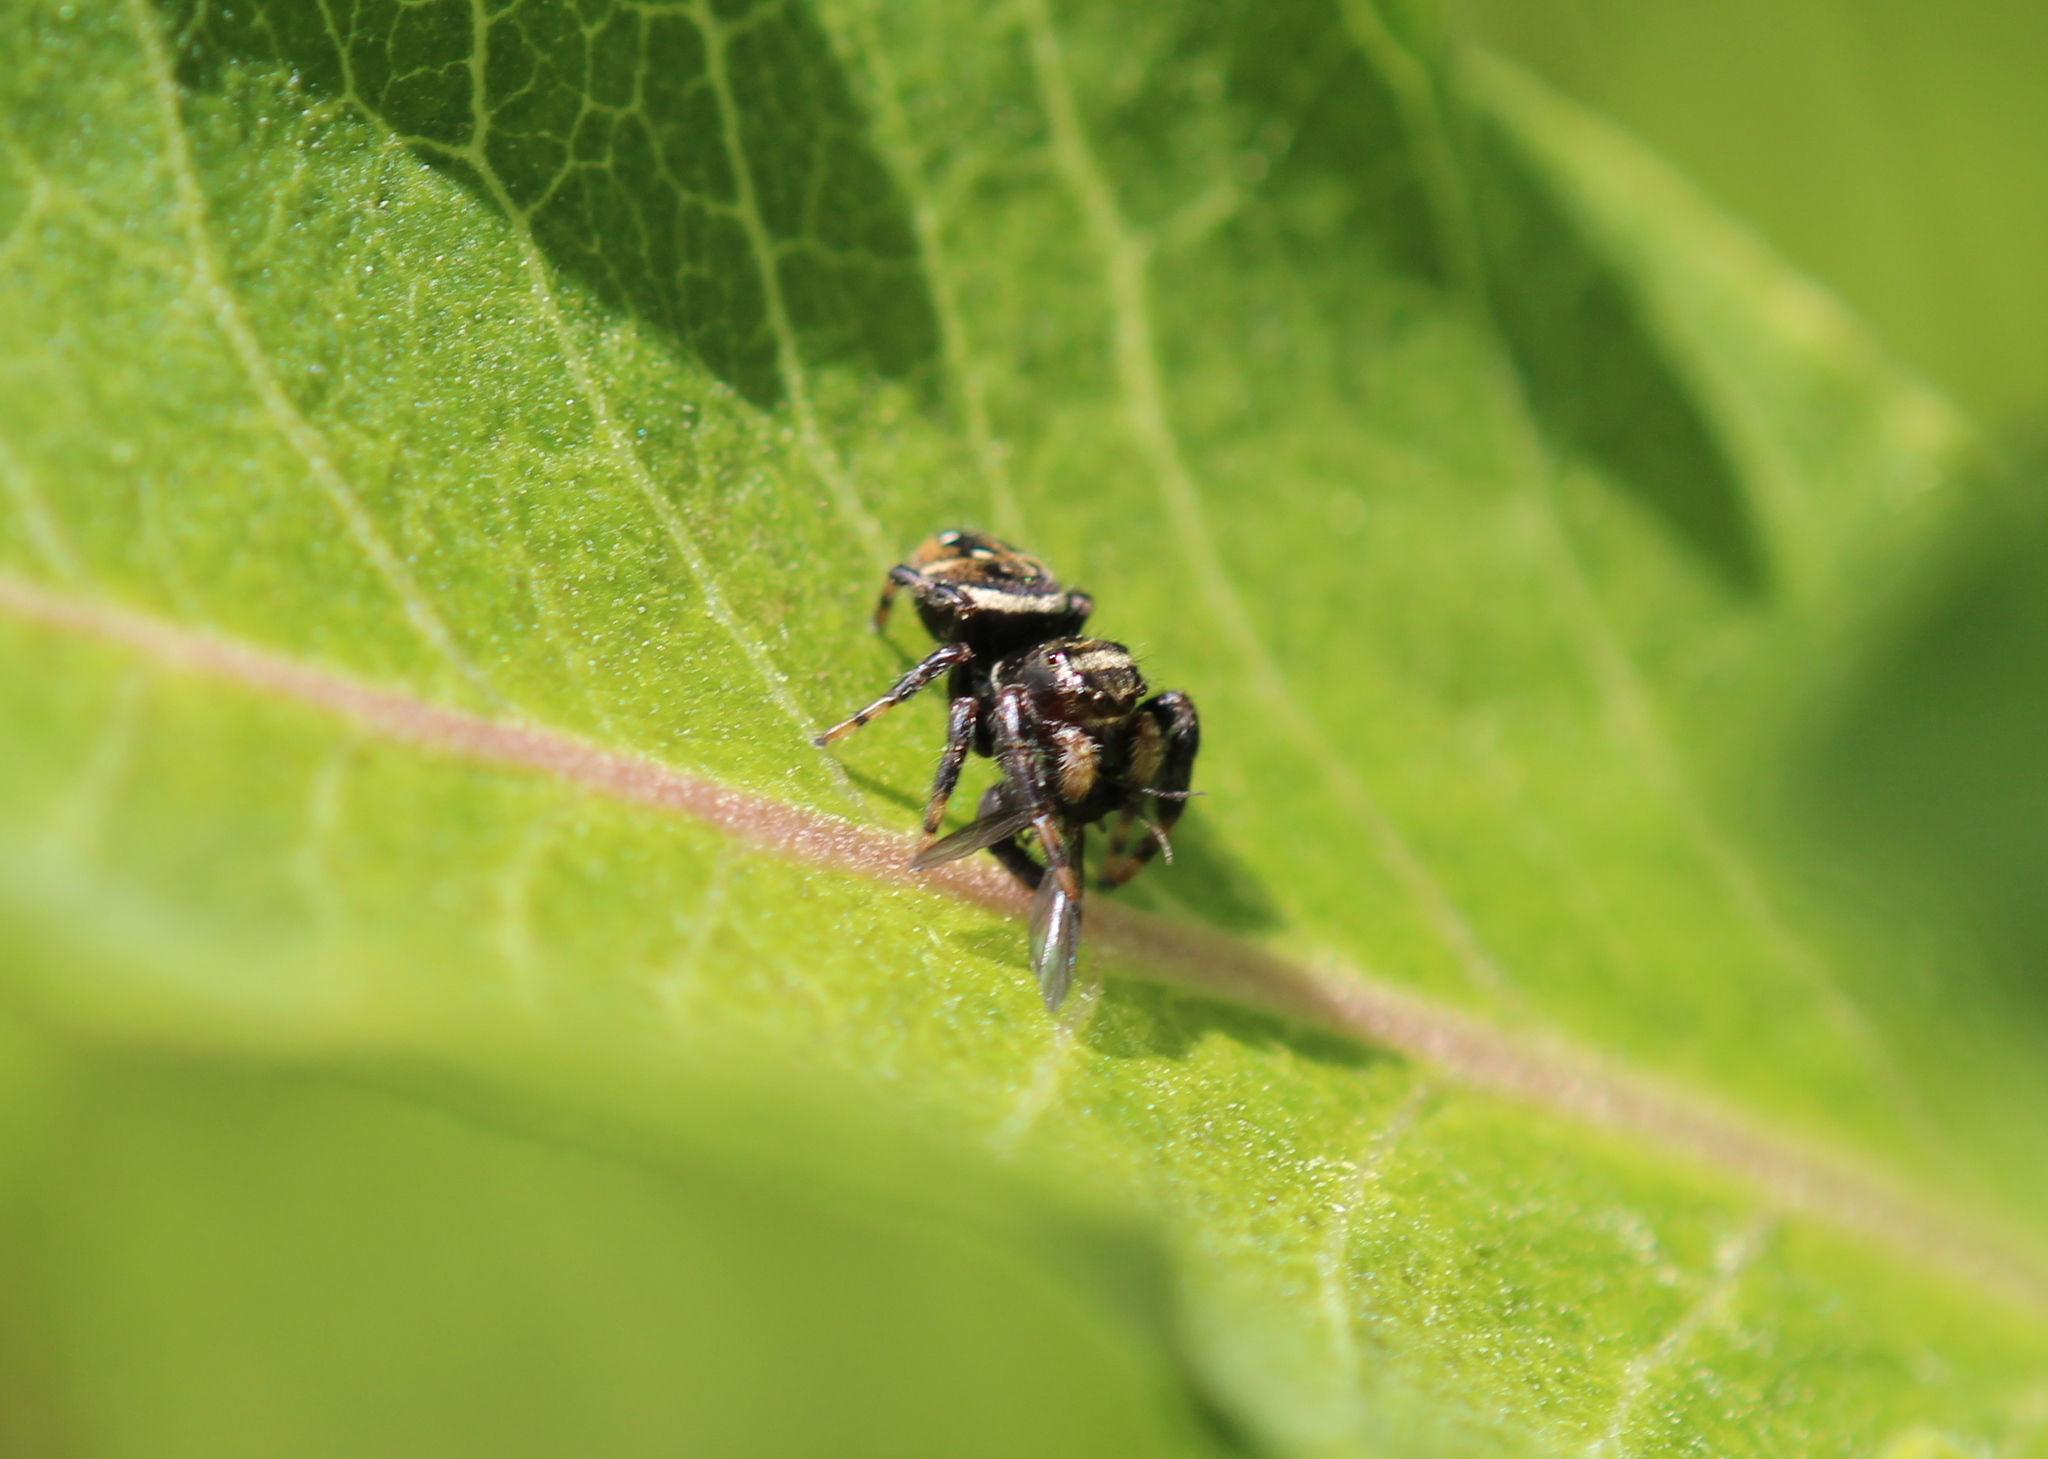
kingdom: Animalia
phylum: Arthropoda
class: Arachnida
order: Araneae
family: Salticidae
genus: Phidippus
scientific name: Phidippus clarus
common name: Brilliant jumping spider
